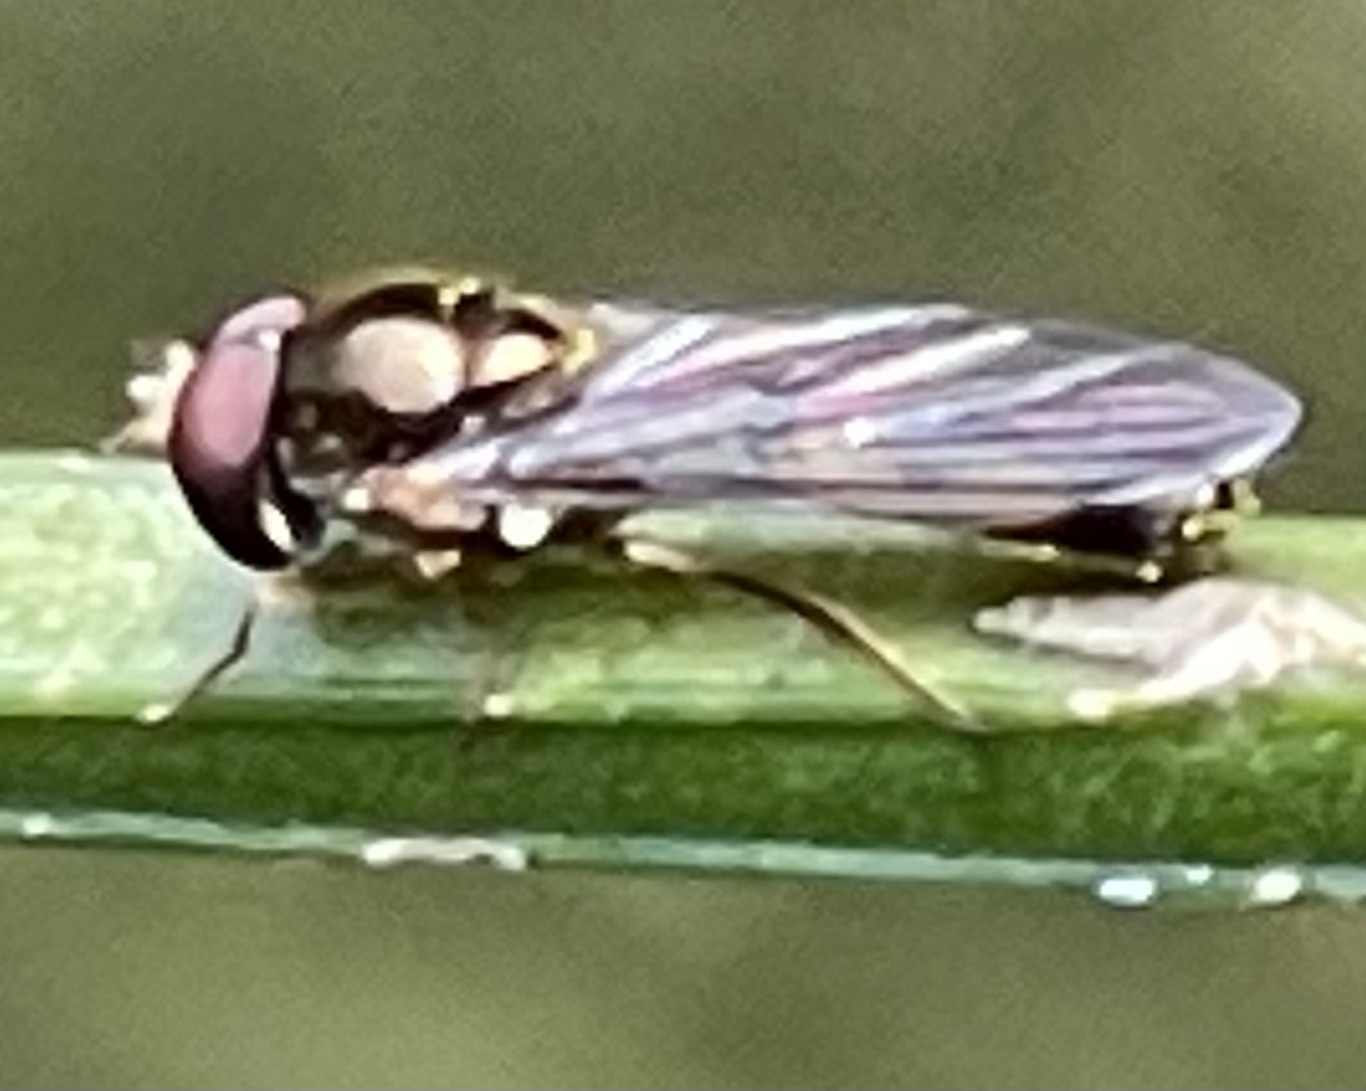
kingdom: Animalia
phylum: Arthropoda
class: Insecta
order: Diptera
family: Syrphidae
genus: Melanostoma
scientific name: Melanostoma scalare
